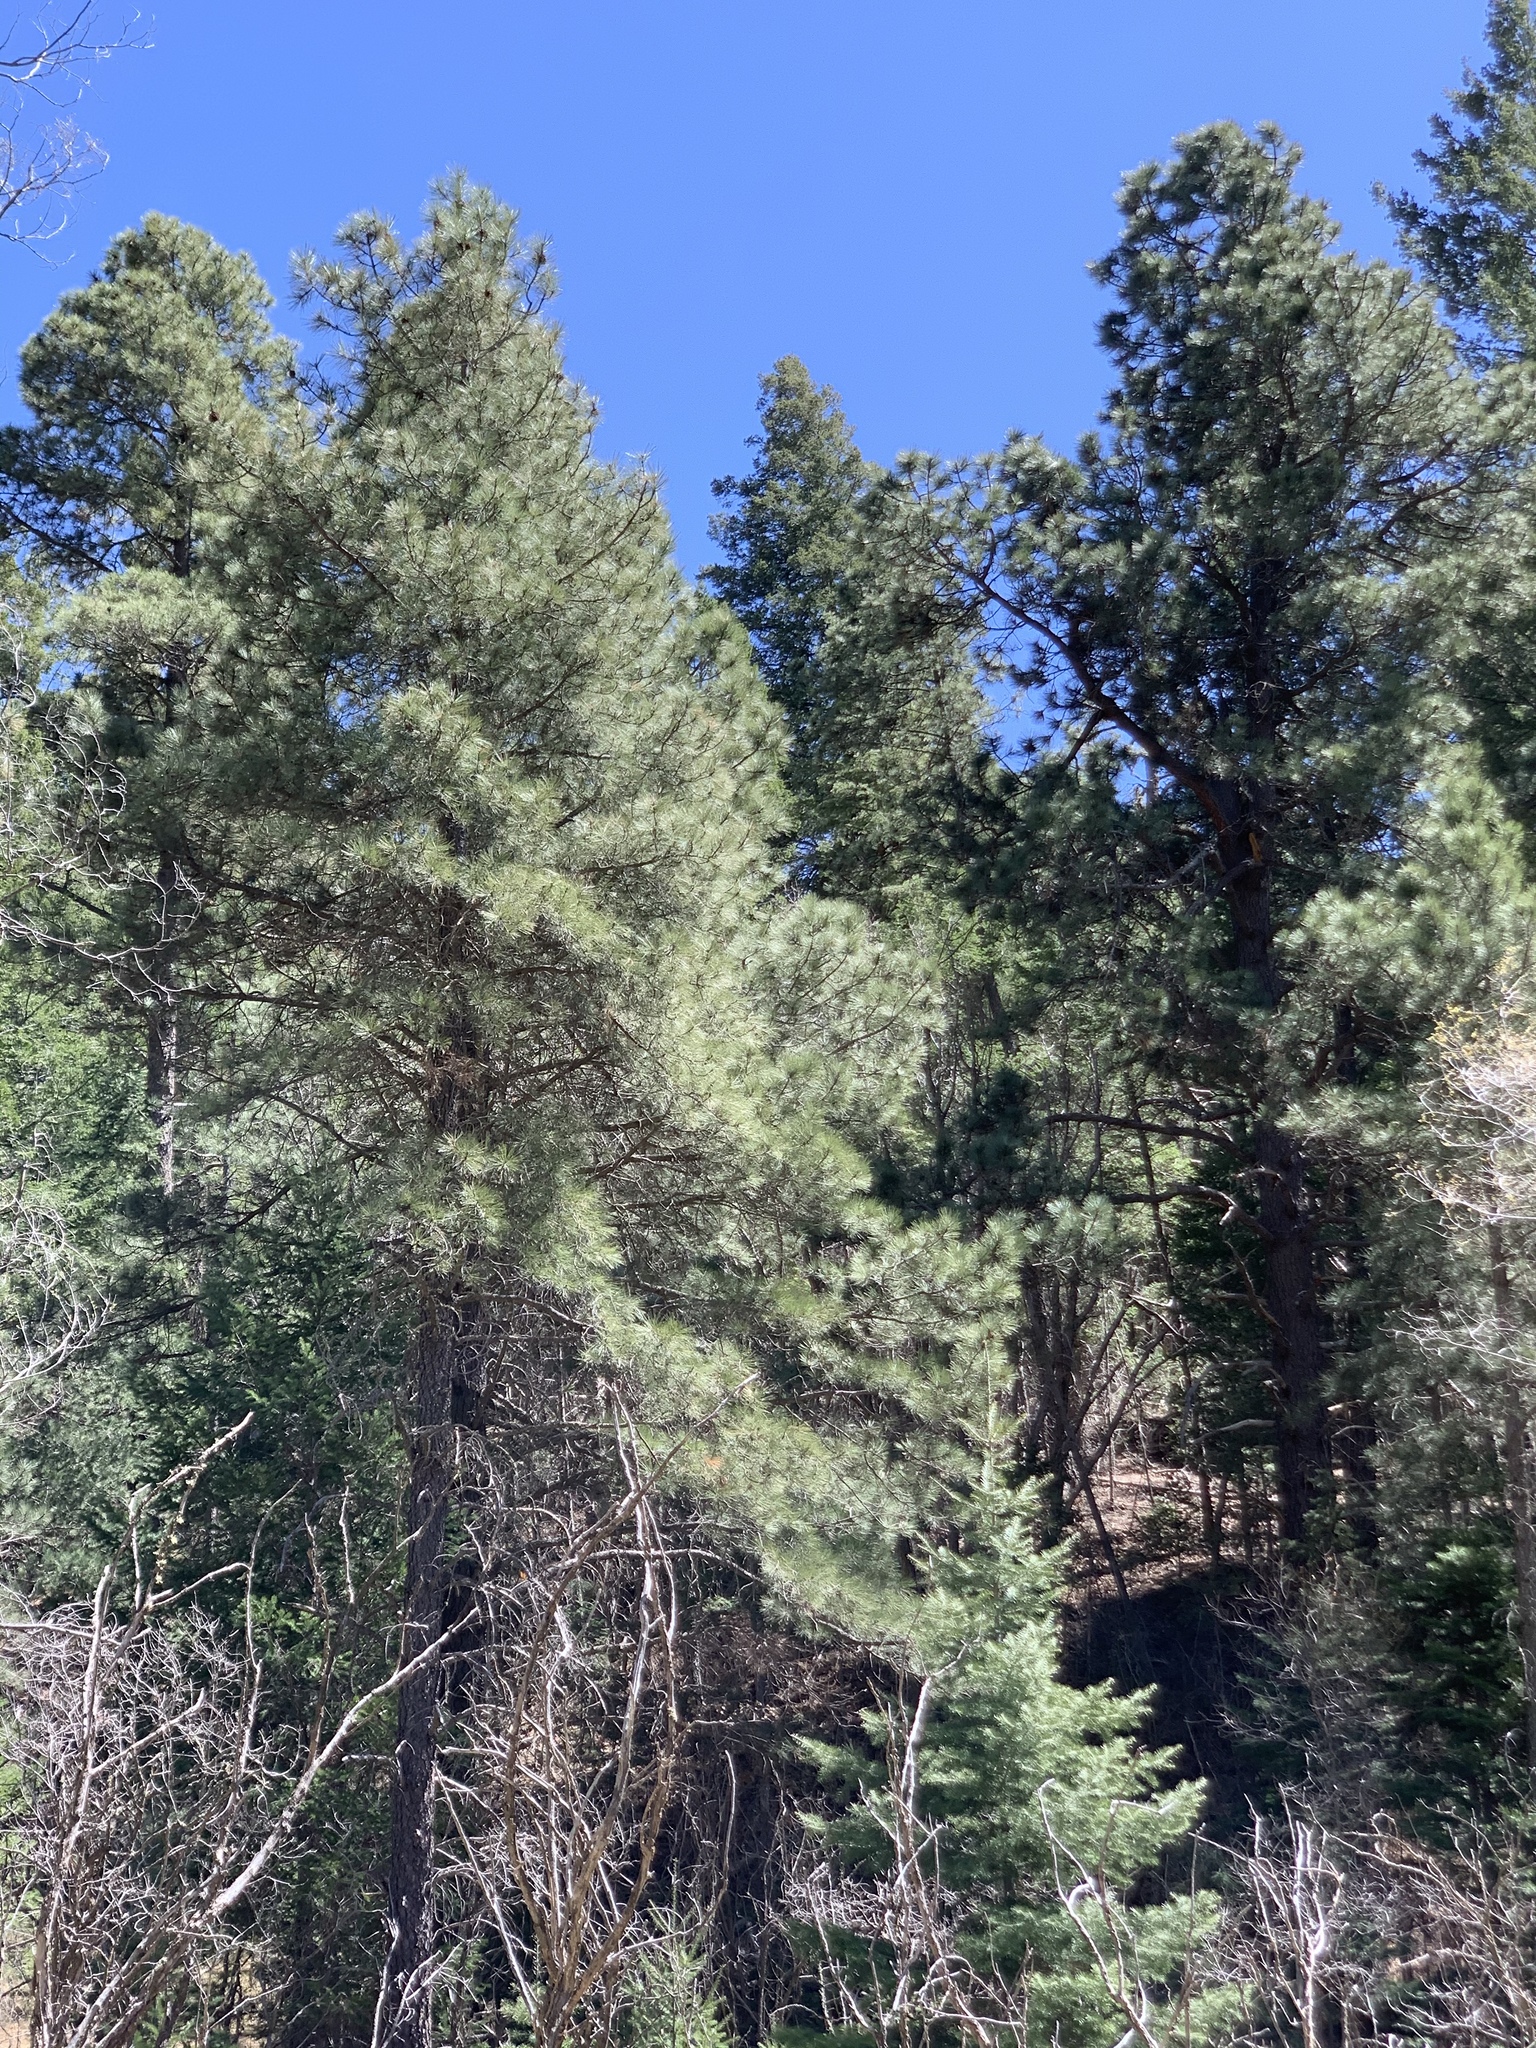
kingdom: Plantae
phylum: Tracheophyta
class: Pinopsida
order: Pinales
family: Pinaceae
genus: Pinus
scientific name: Pinus ponderosa
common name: Western yellow-pine
